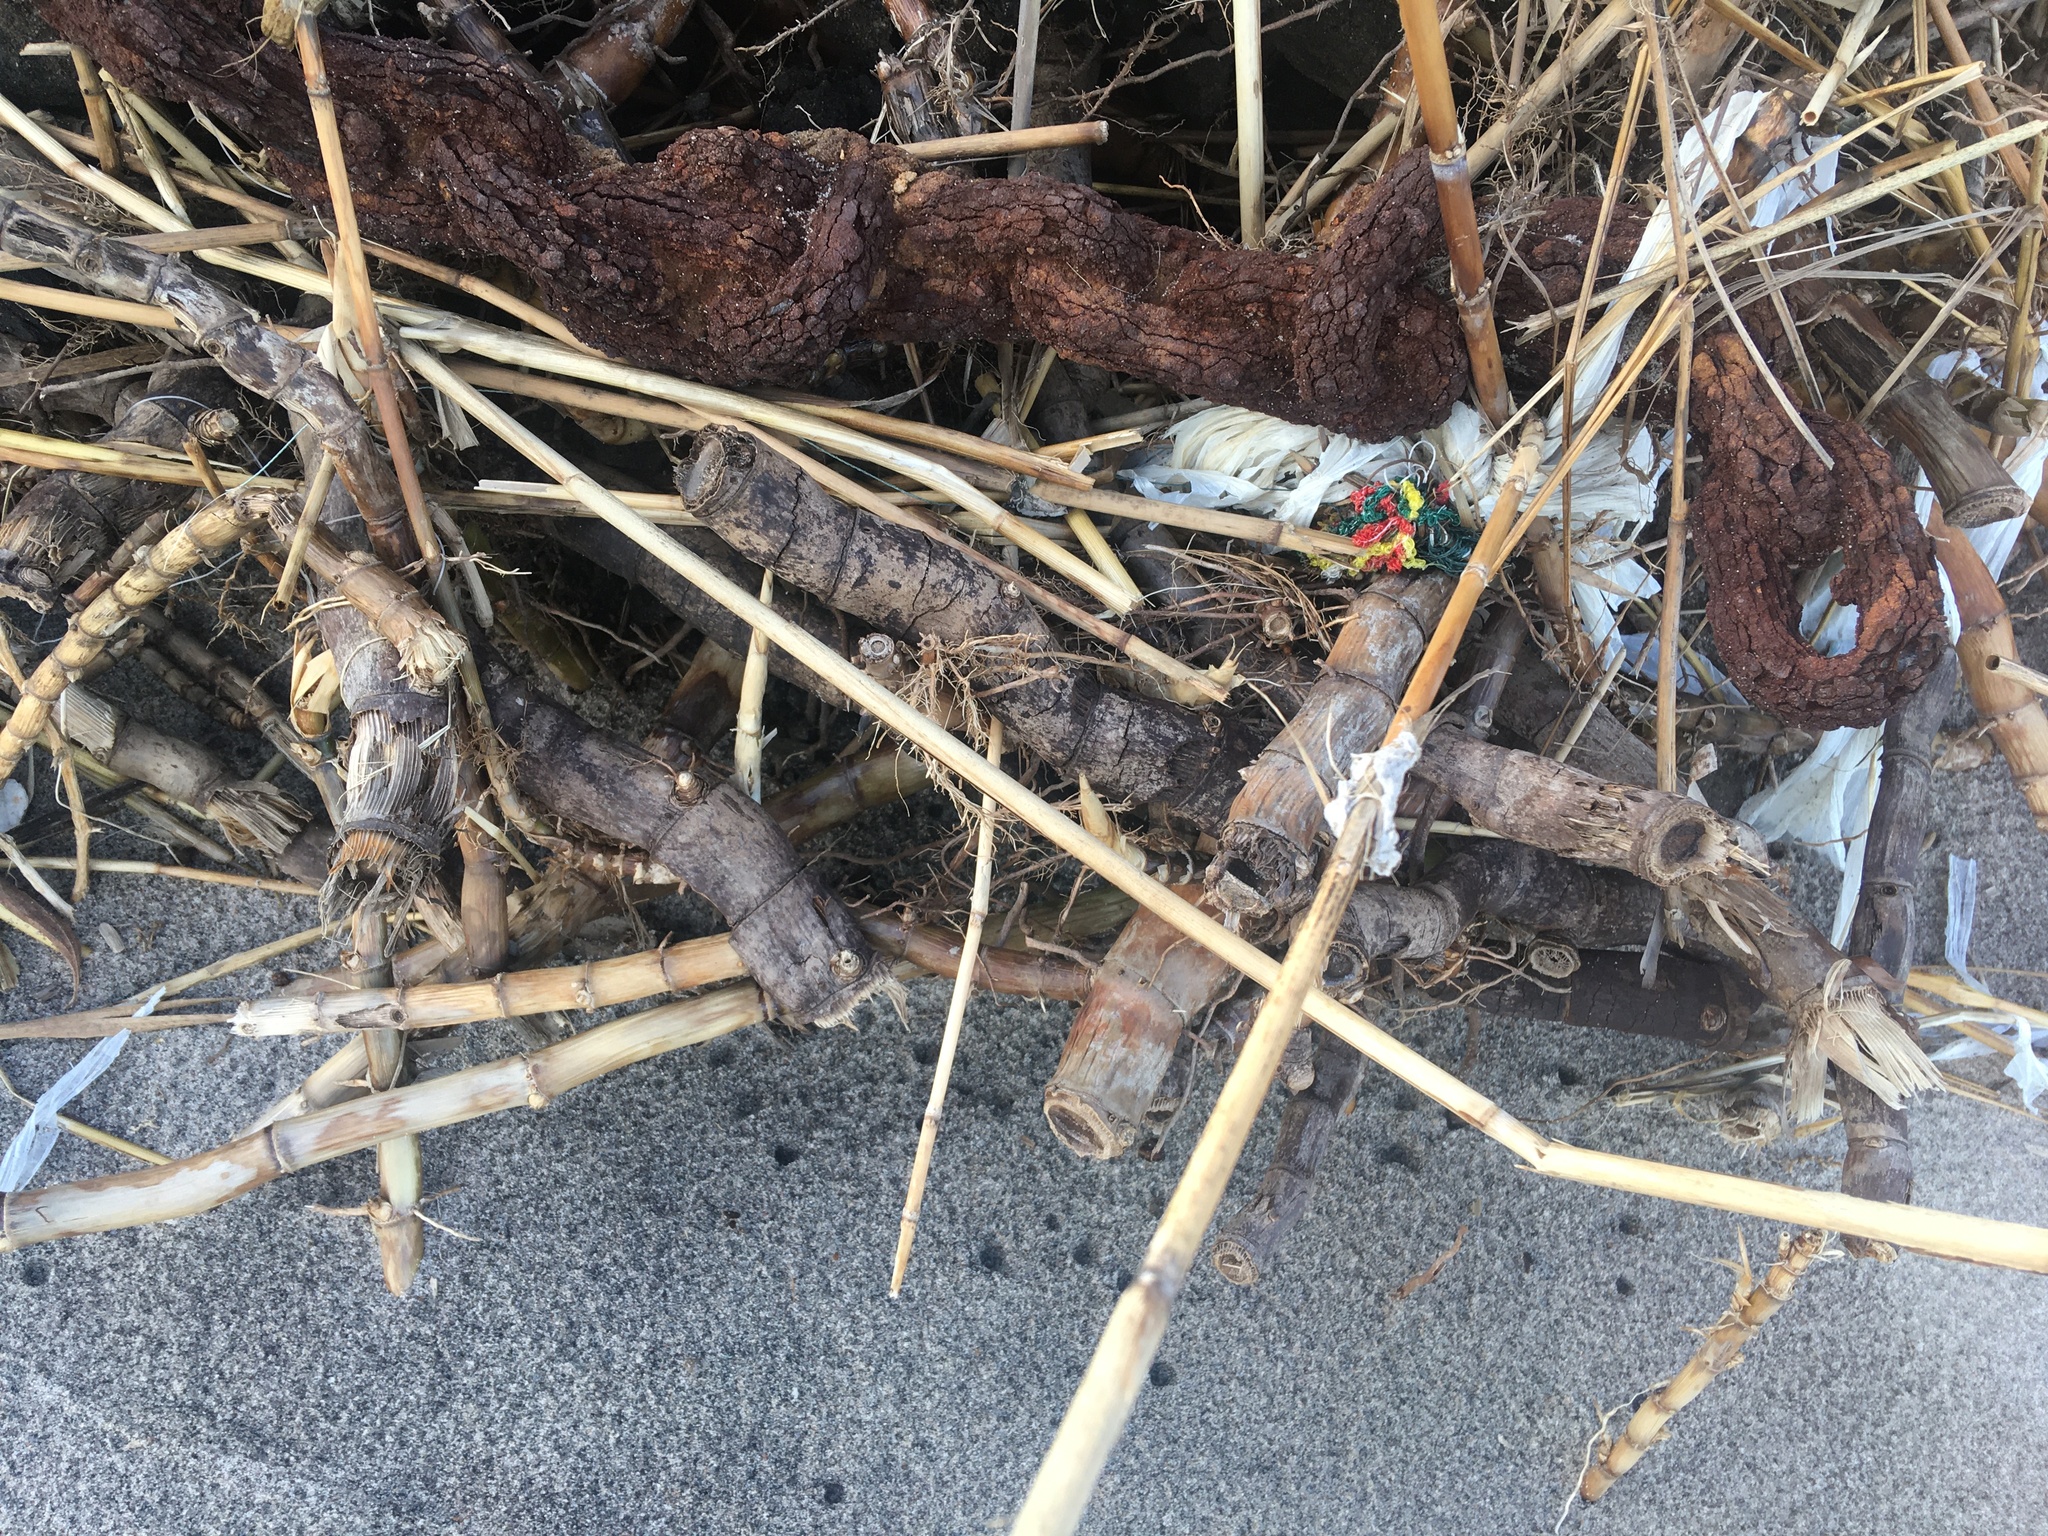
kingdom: Plantae
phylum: Tracheophyta
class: Liliopsida
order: Poales
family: Poaceae
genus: Phragmites
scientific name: Phragmites australis
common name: Common reed
